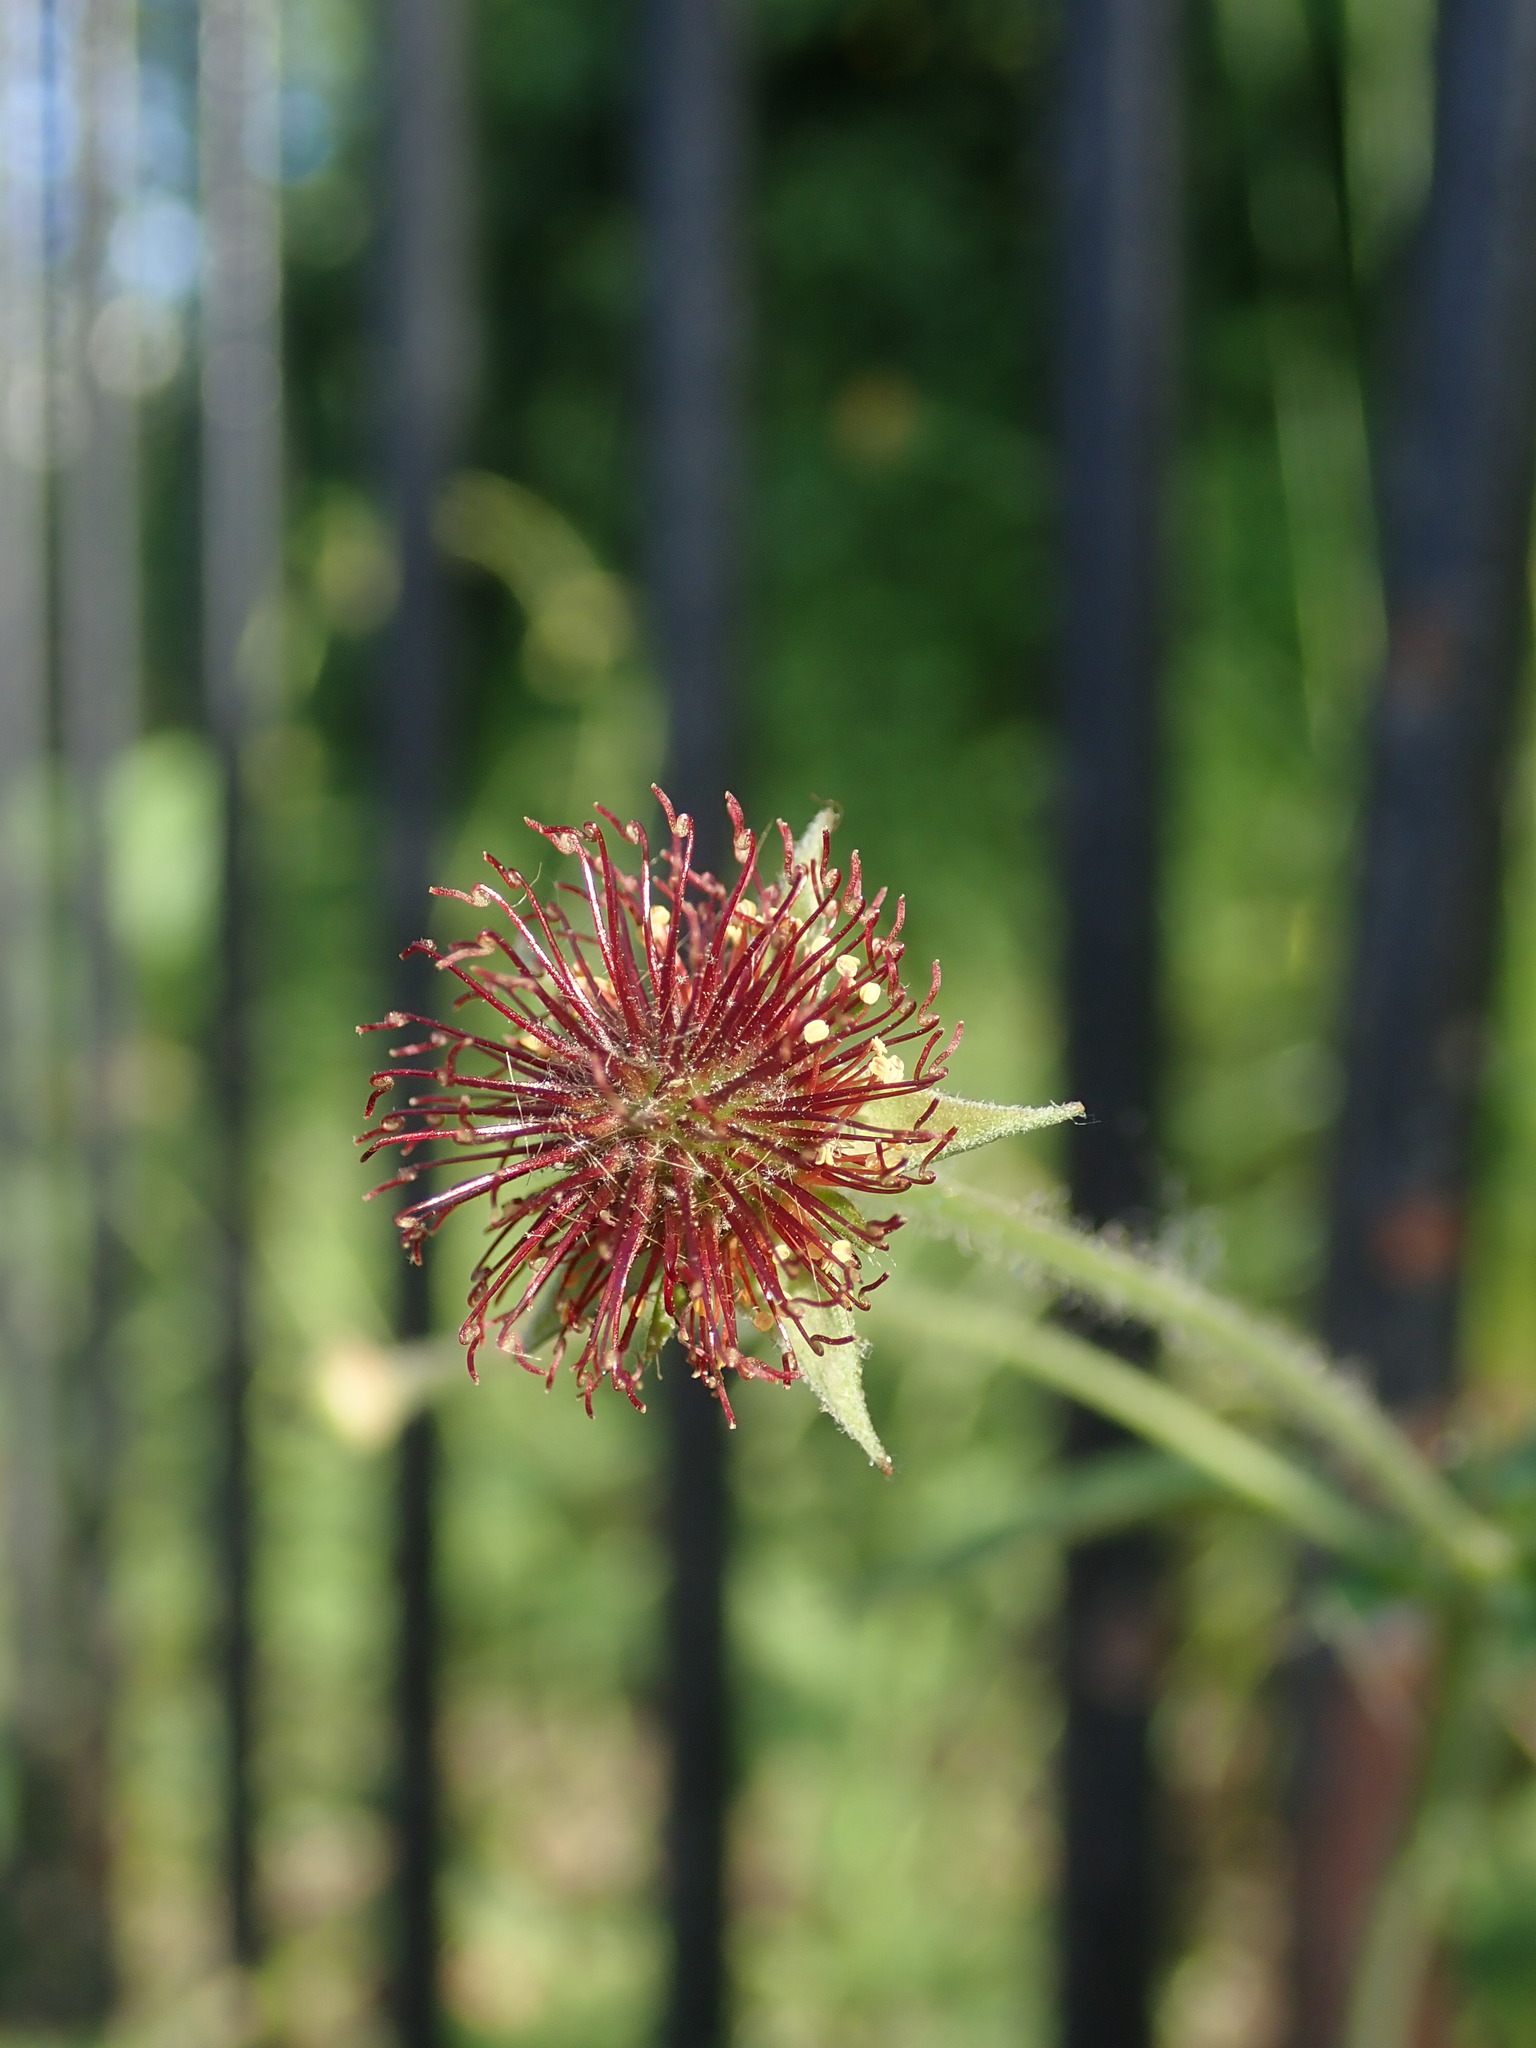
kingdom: Plantae
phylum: Tracheophyta
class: Magnoliopsida
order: Rosales
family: Rosaceae
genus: Geum
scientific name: Geum urbanum
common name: Wood avens
